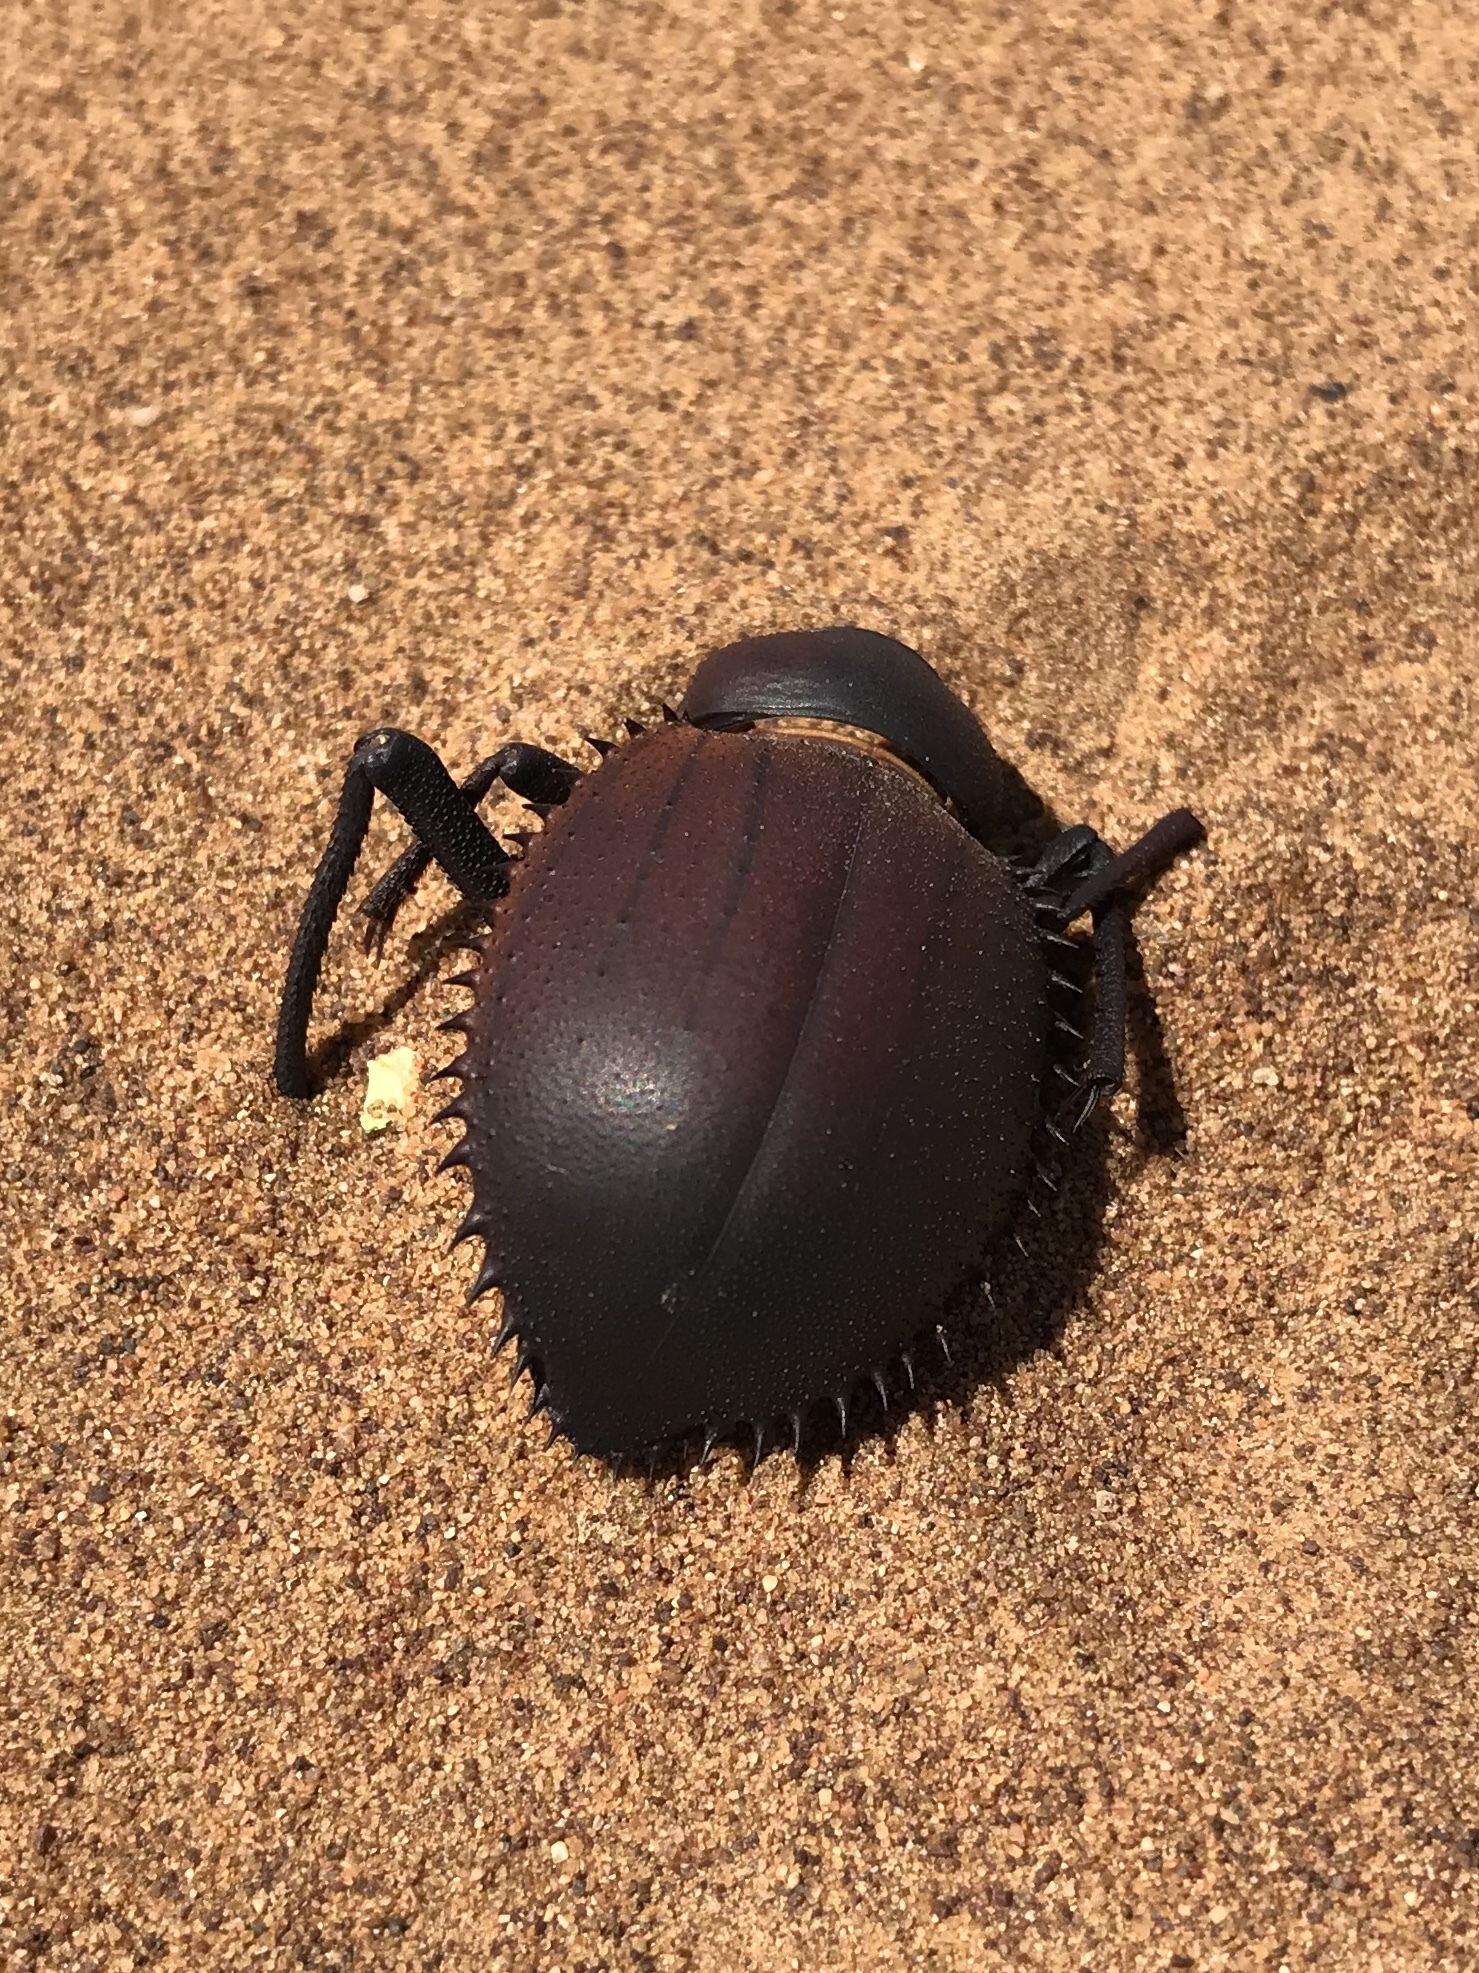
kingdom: Animalia
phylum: Arthropoda
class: Insecta
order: Coleoptera
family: Tenebrionidae
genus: Prionotheca
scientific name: Prionotheca coronata
